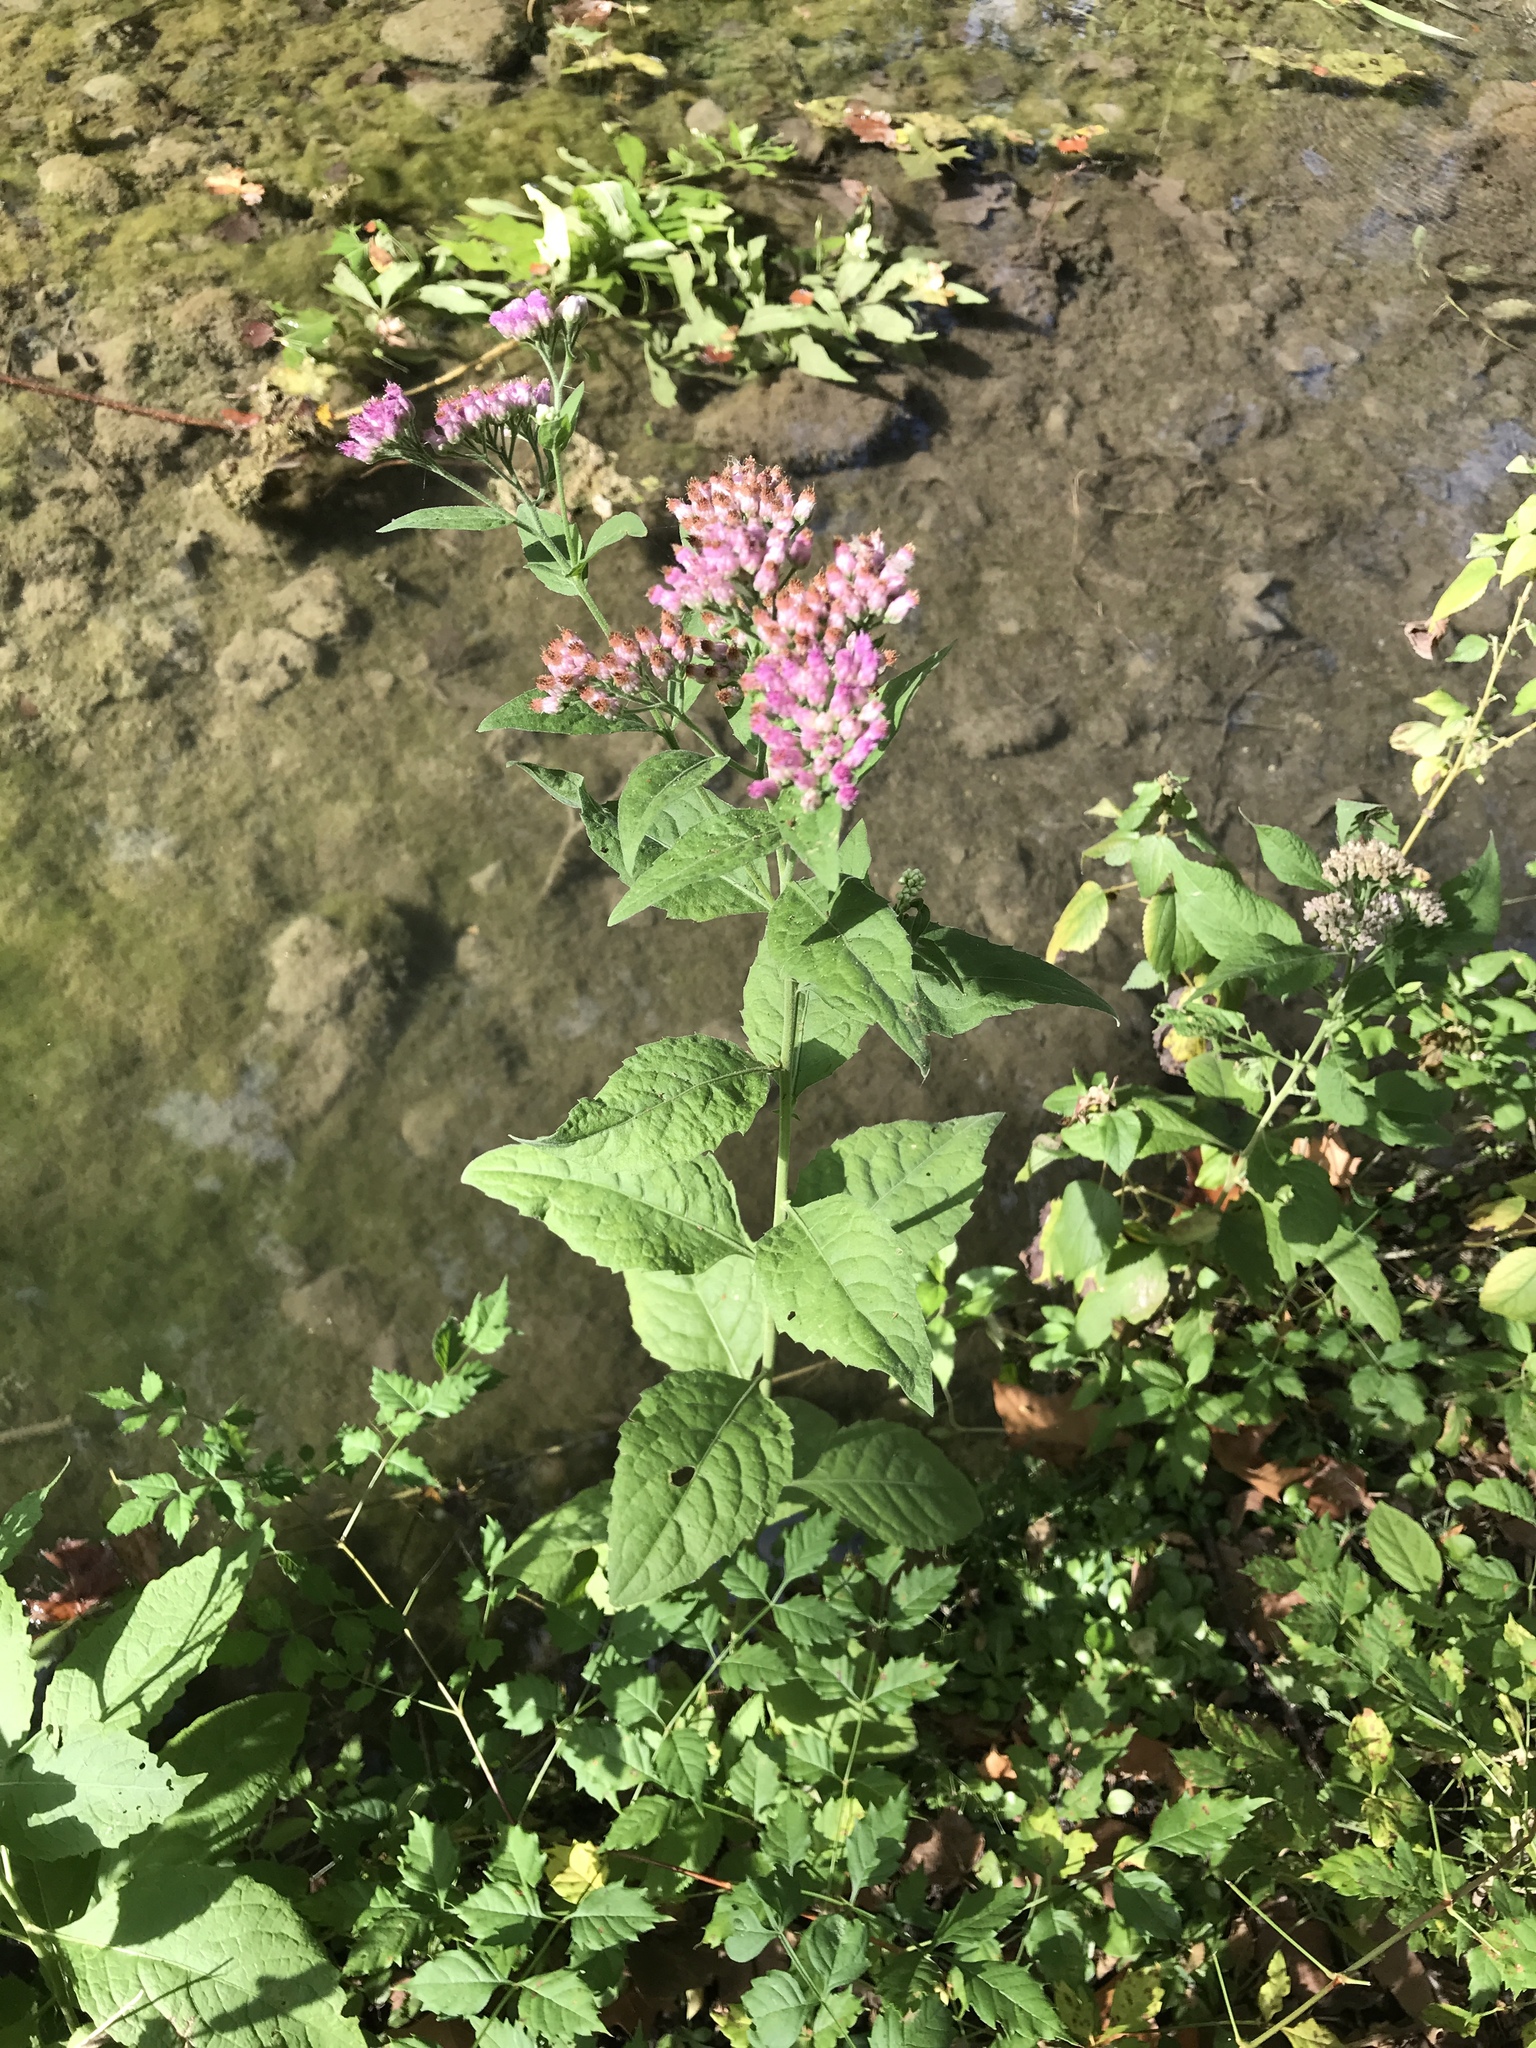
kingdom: Plantae
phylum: Tracheophyta
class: Magnoliopsida
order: Asterales
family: Asteraceae
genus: Pluchea
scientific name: Pluchea odorata
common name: Saltmarsh fleabane
